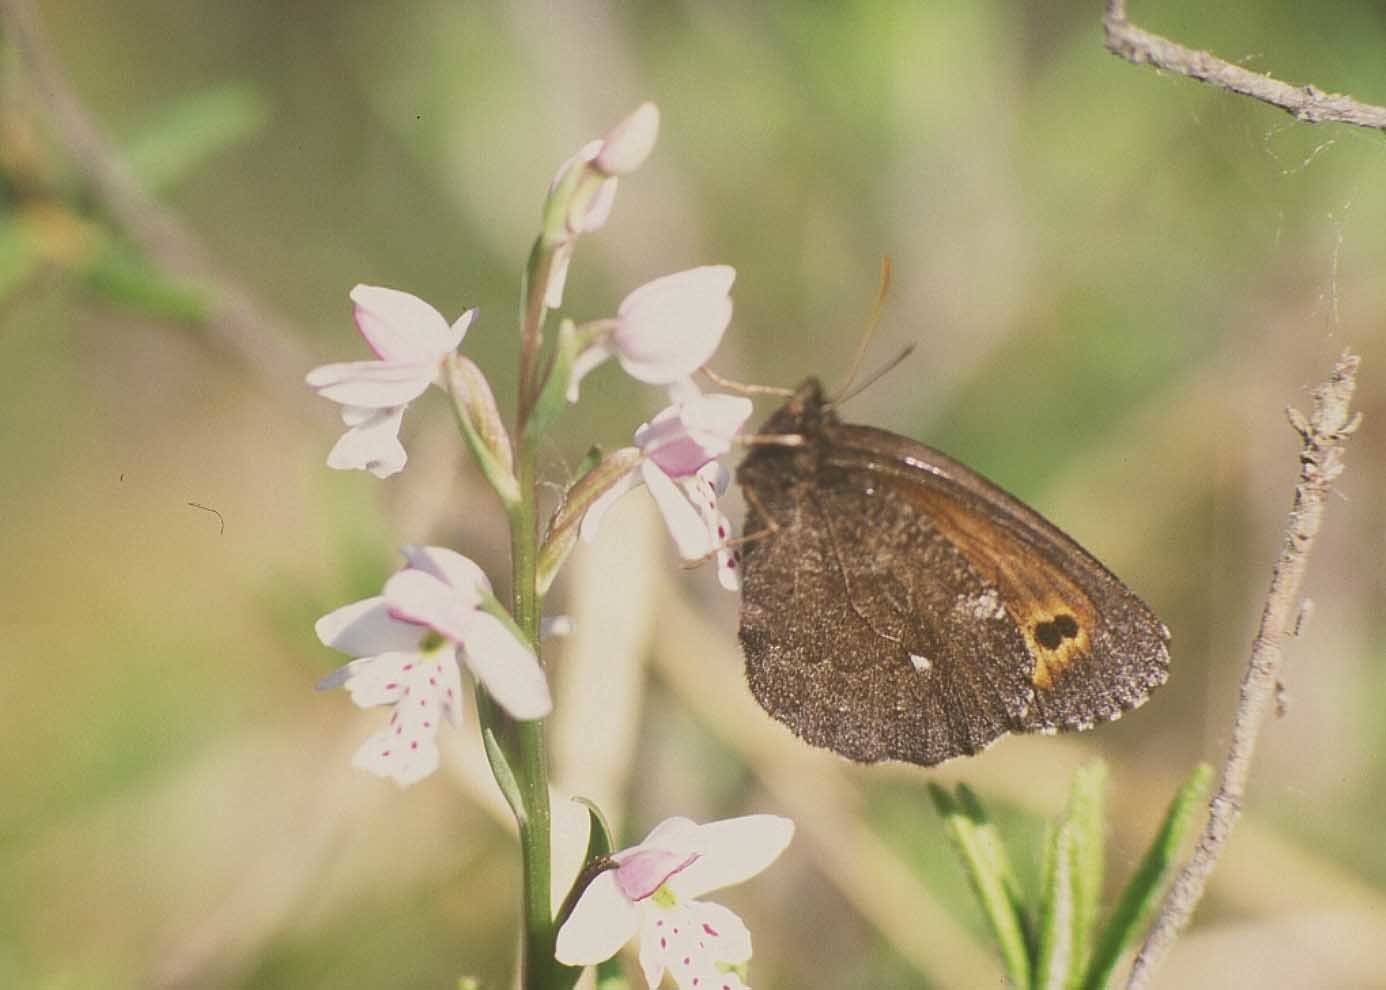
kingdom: Animalia
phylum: Arthropoda
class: Insecta
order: Lepidoptera
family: Nymphalidae
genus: Erebia
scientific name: Erebia disa
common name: Arctic ringlet
